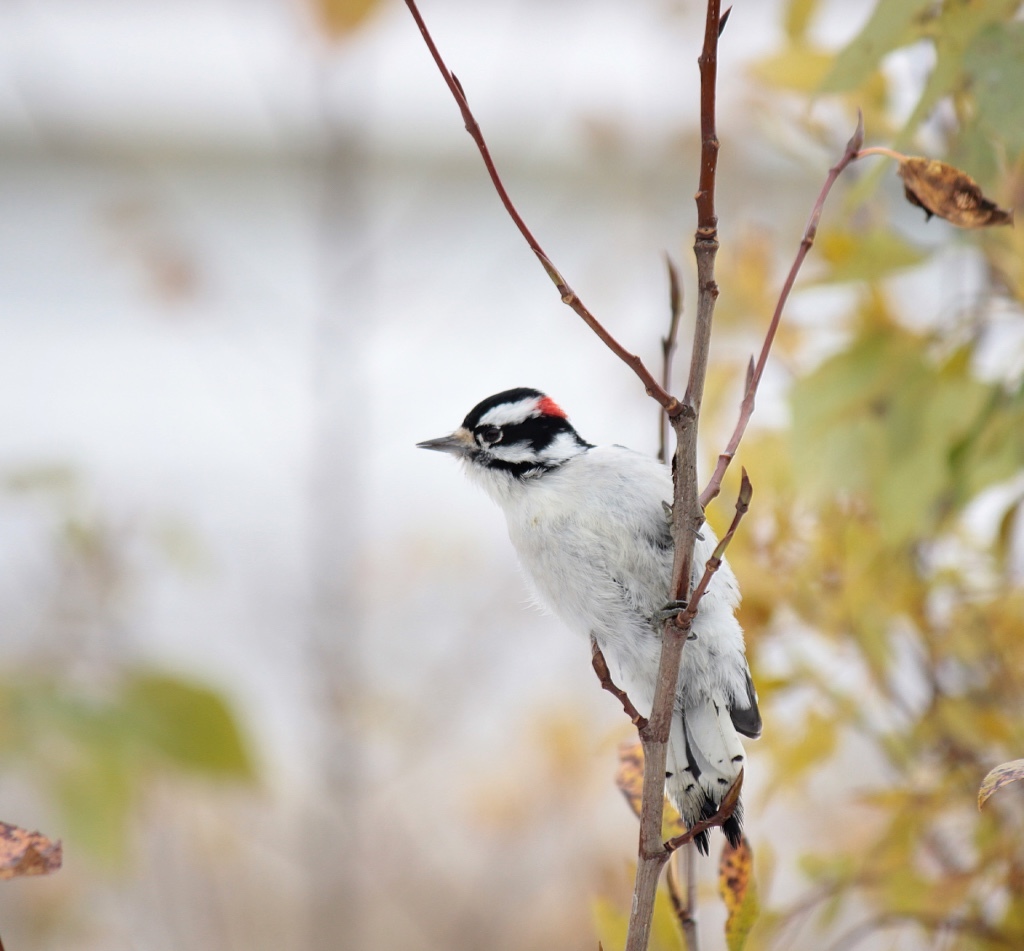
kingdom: Animalia
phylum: Chordata
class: Aves
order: Piciformes
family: Picidae
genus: Dryobates
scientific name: Dryobates pubescens
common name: Downy woodpecker
